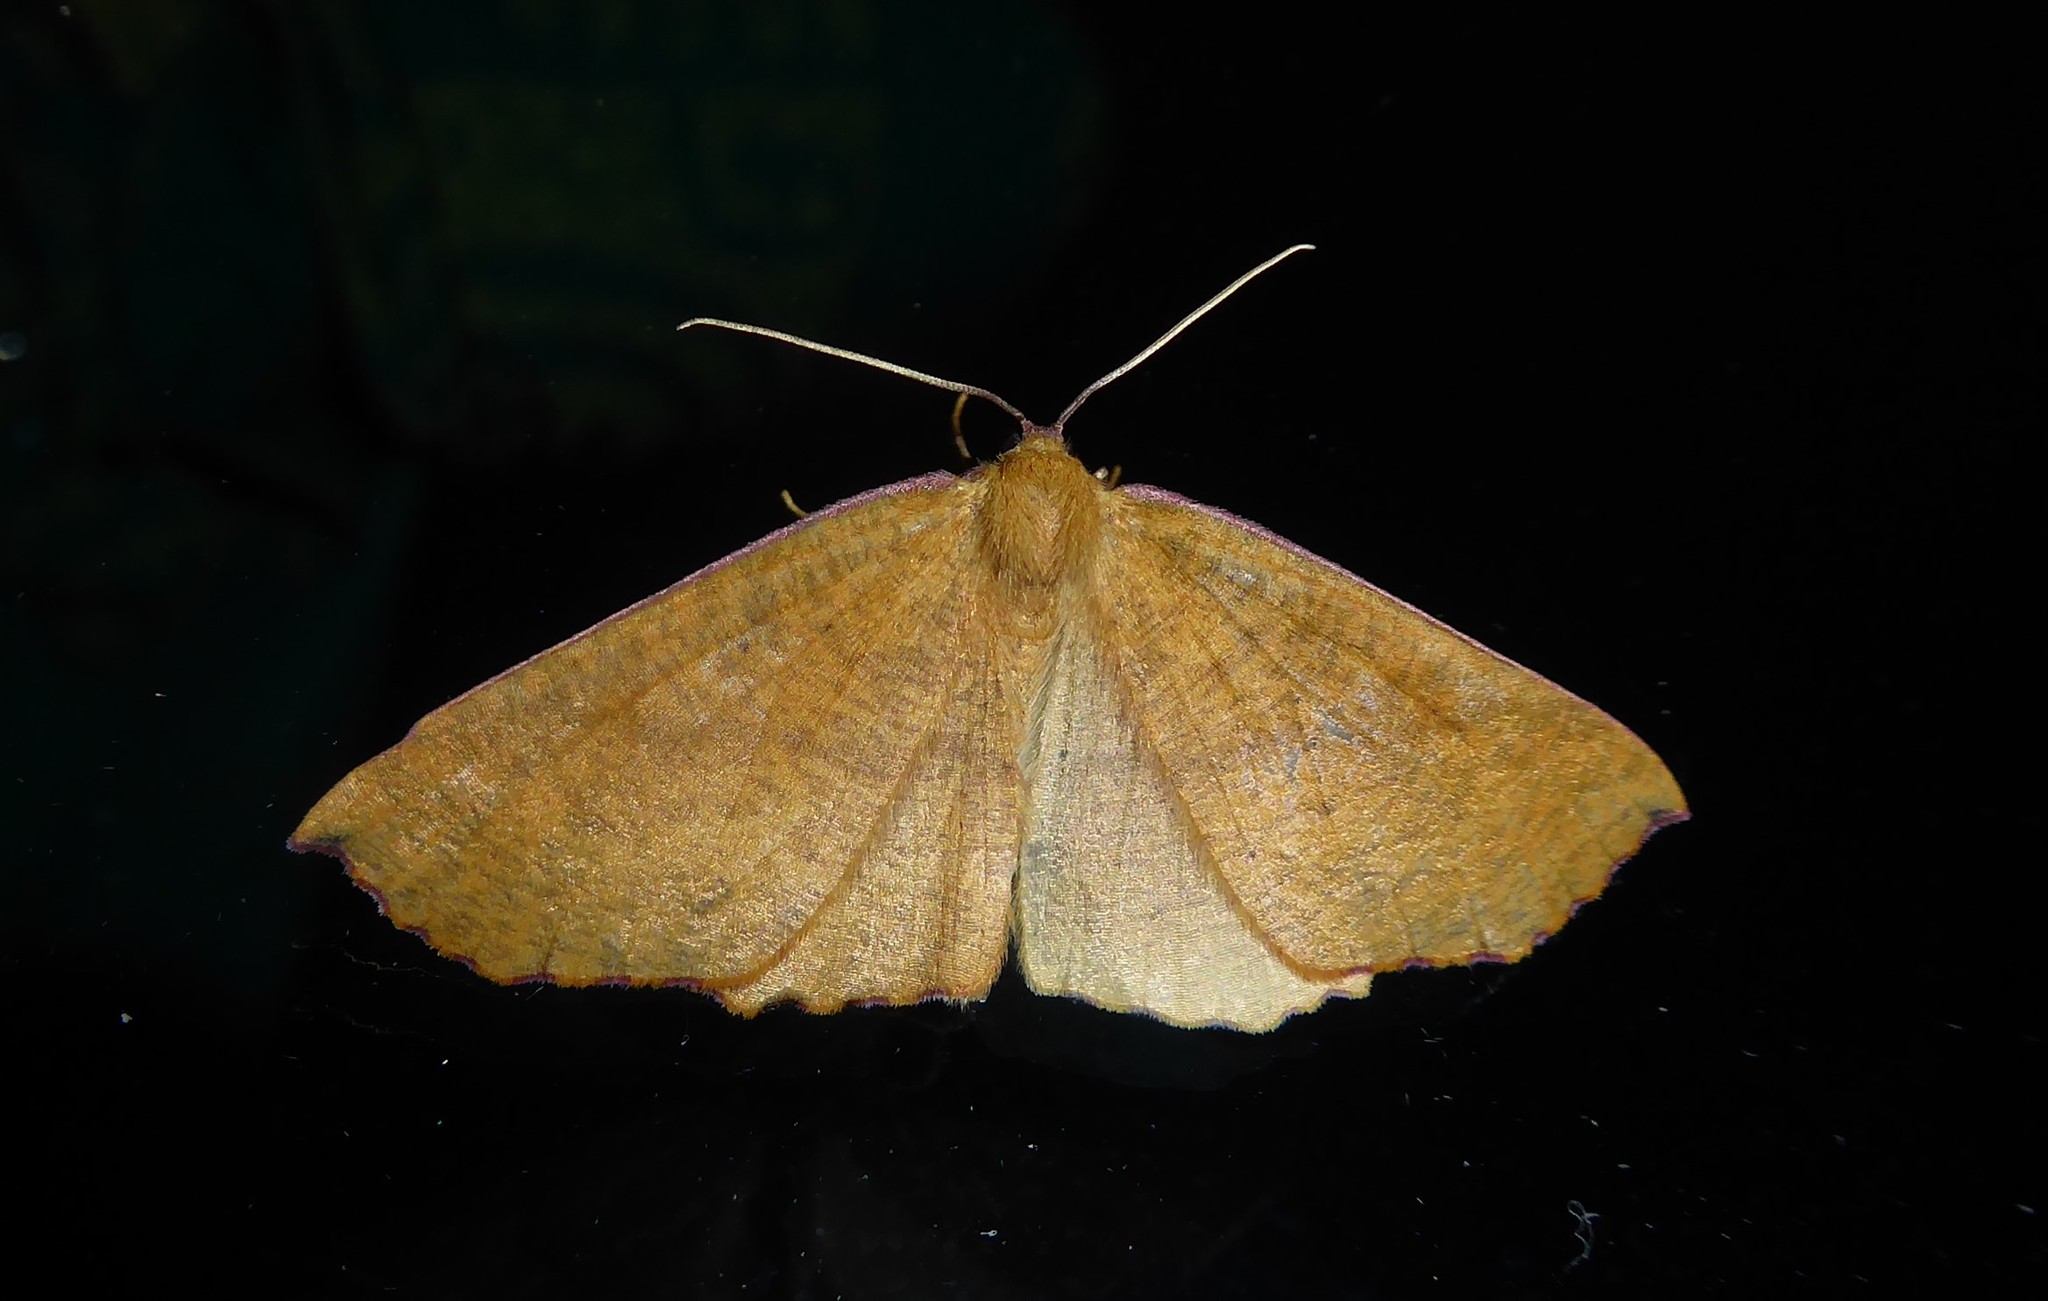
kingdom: Animalia
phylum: Arthropoda
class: Insecta
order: Lepidoptera
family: Geometridae
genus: Xyridacma
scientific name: Xyridacma ustaria
